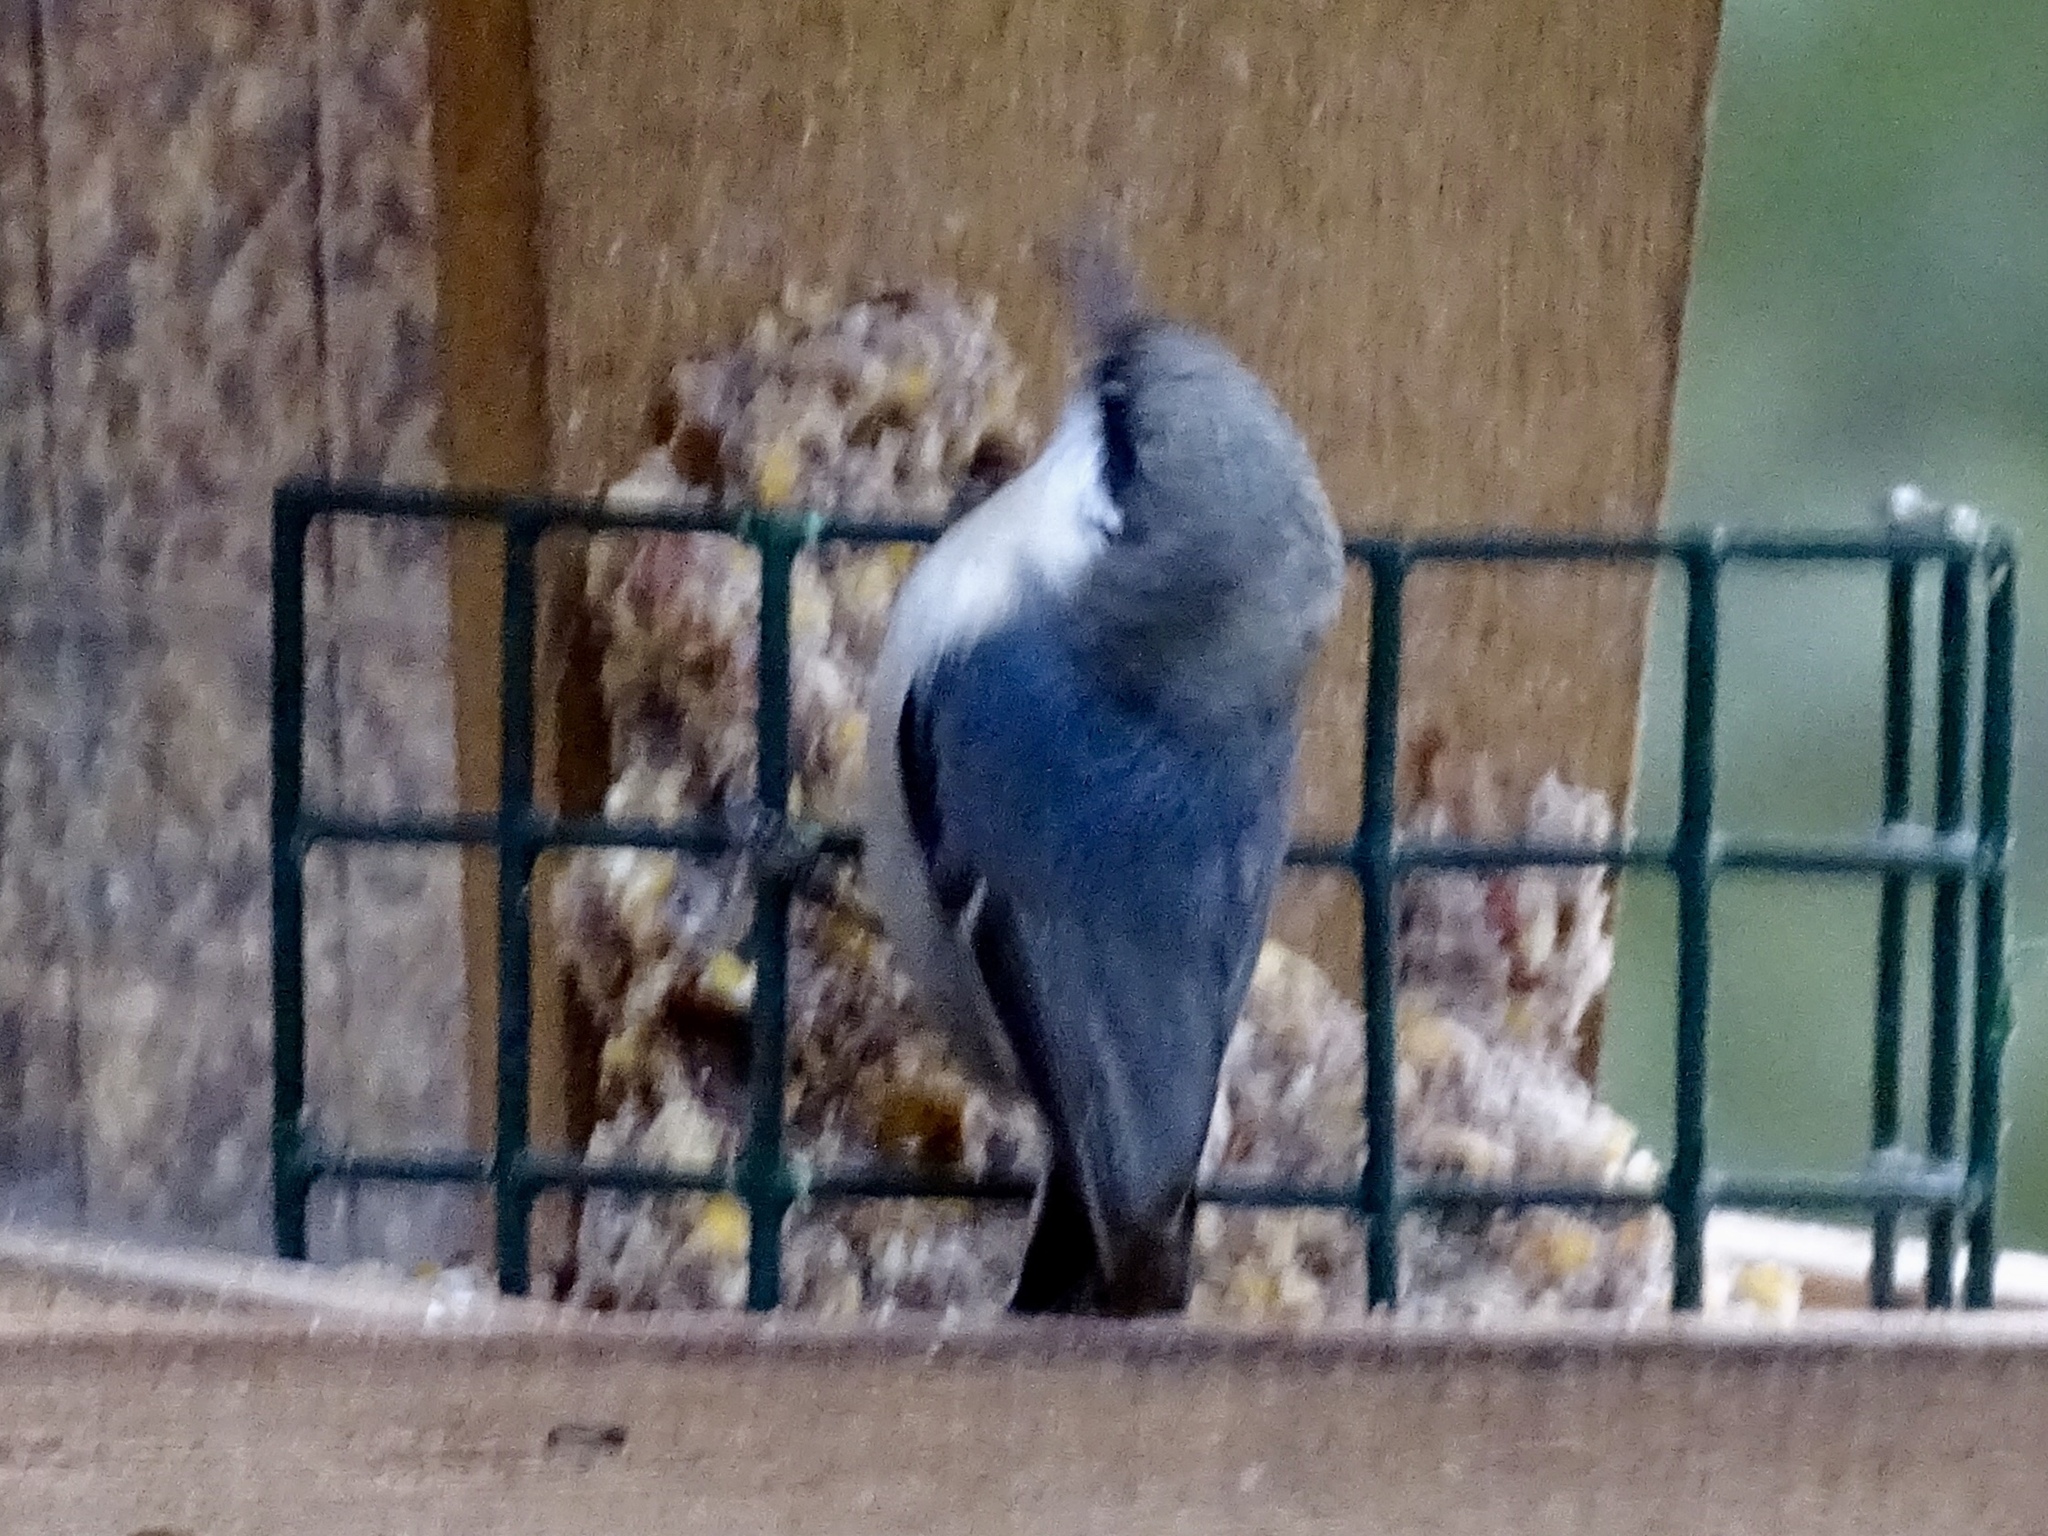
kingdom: Animalia
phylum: Chordata
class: Aves
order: Passeriformes
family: Sittidae
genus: Sitta
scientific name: Sitta pygmaea
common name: Pygmy nuthatch
